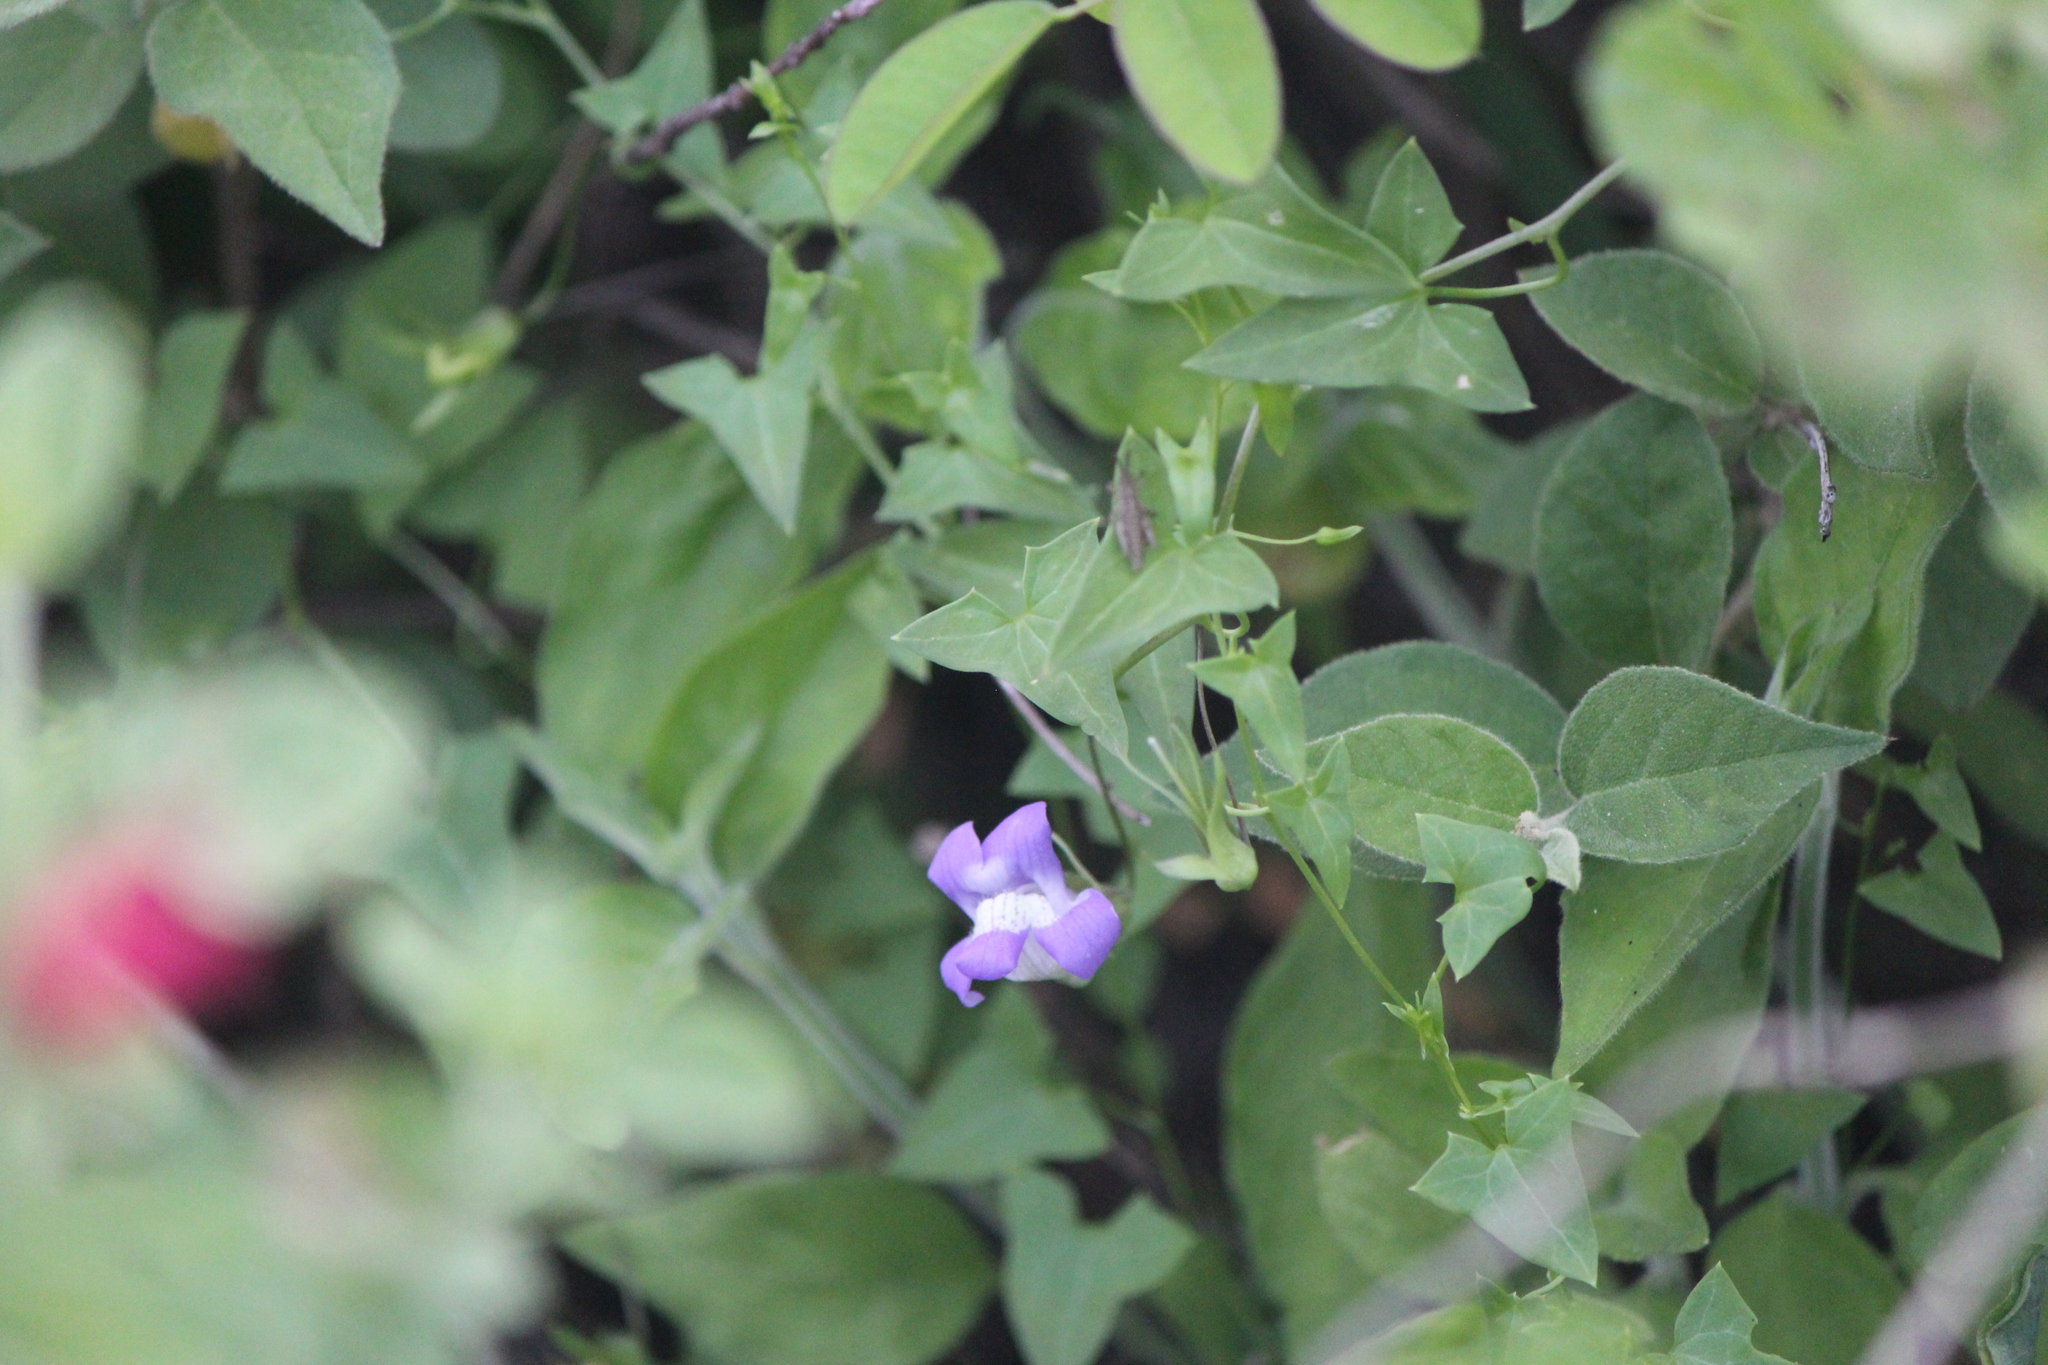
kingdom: Plantae
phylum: Tracheophyta
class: Magnoliopsida
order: Lamiales
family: Plantaginaceae
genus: Maurandella
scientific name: Maurandella antirrhiniflora
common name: Violet twining-snapdragon
